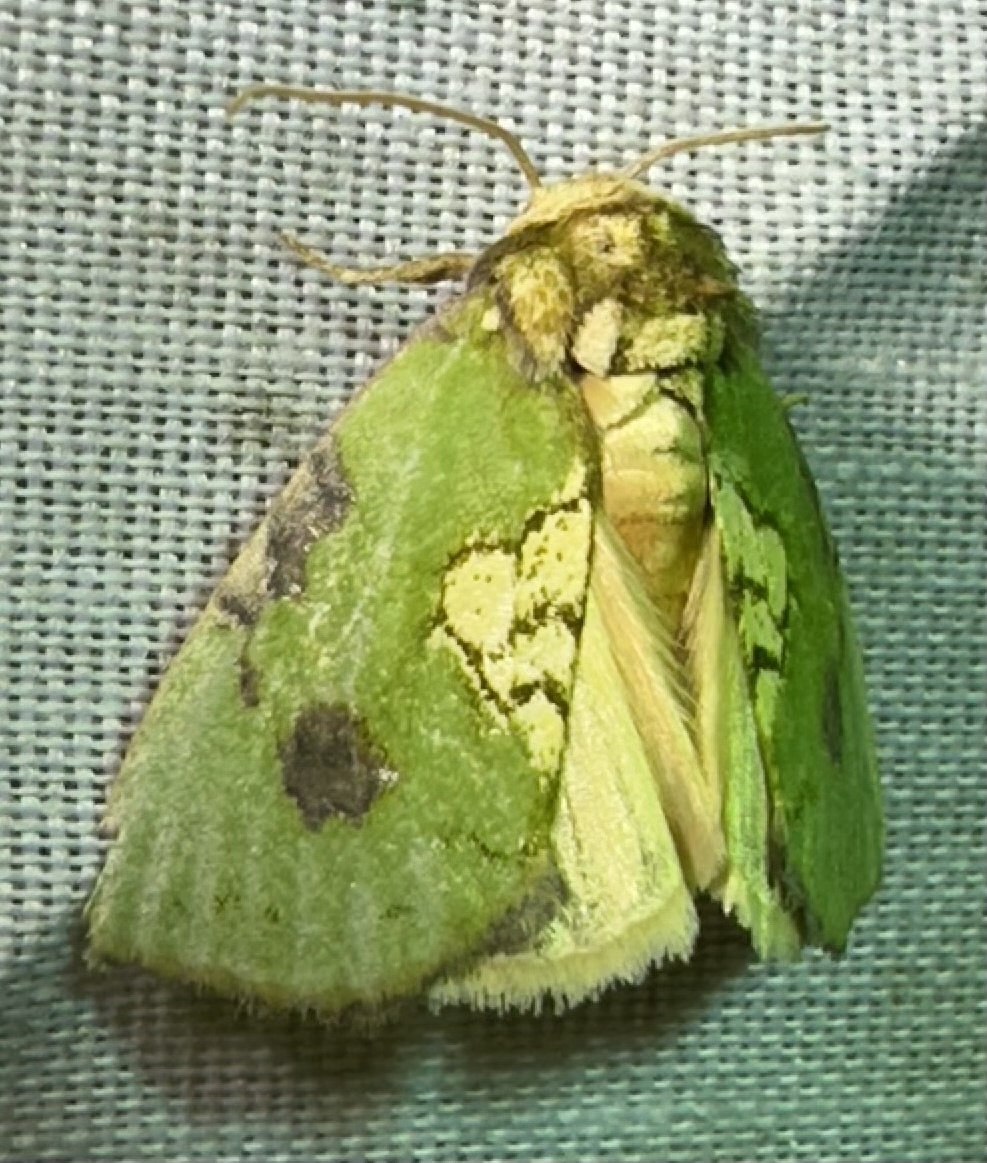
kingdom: Animalia
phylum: Arthropoda
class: Insecta
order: Lepidoptera
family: Noctuidae
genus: Ectolopha
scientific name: Ectolopha viridescens
